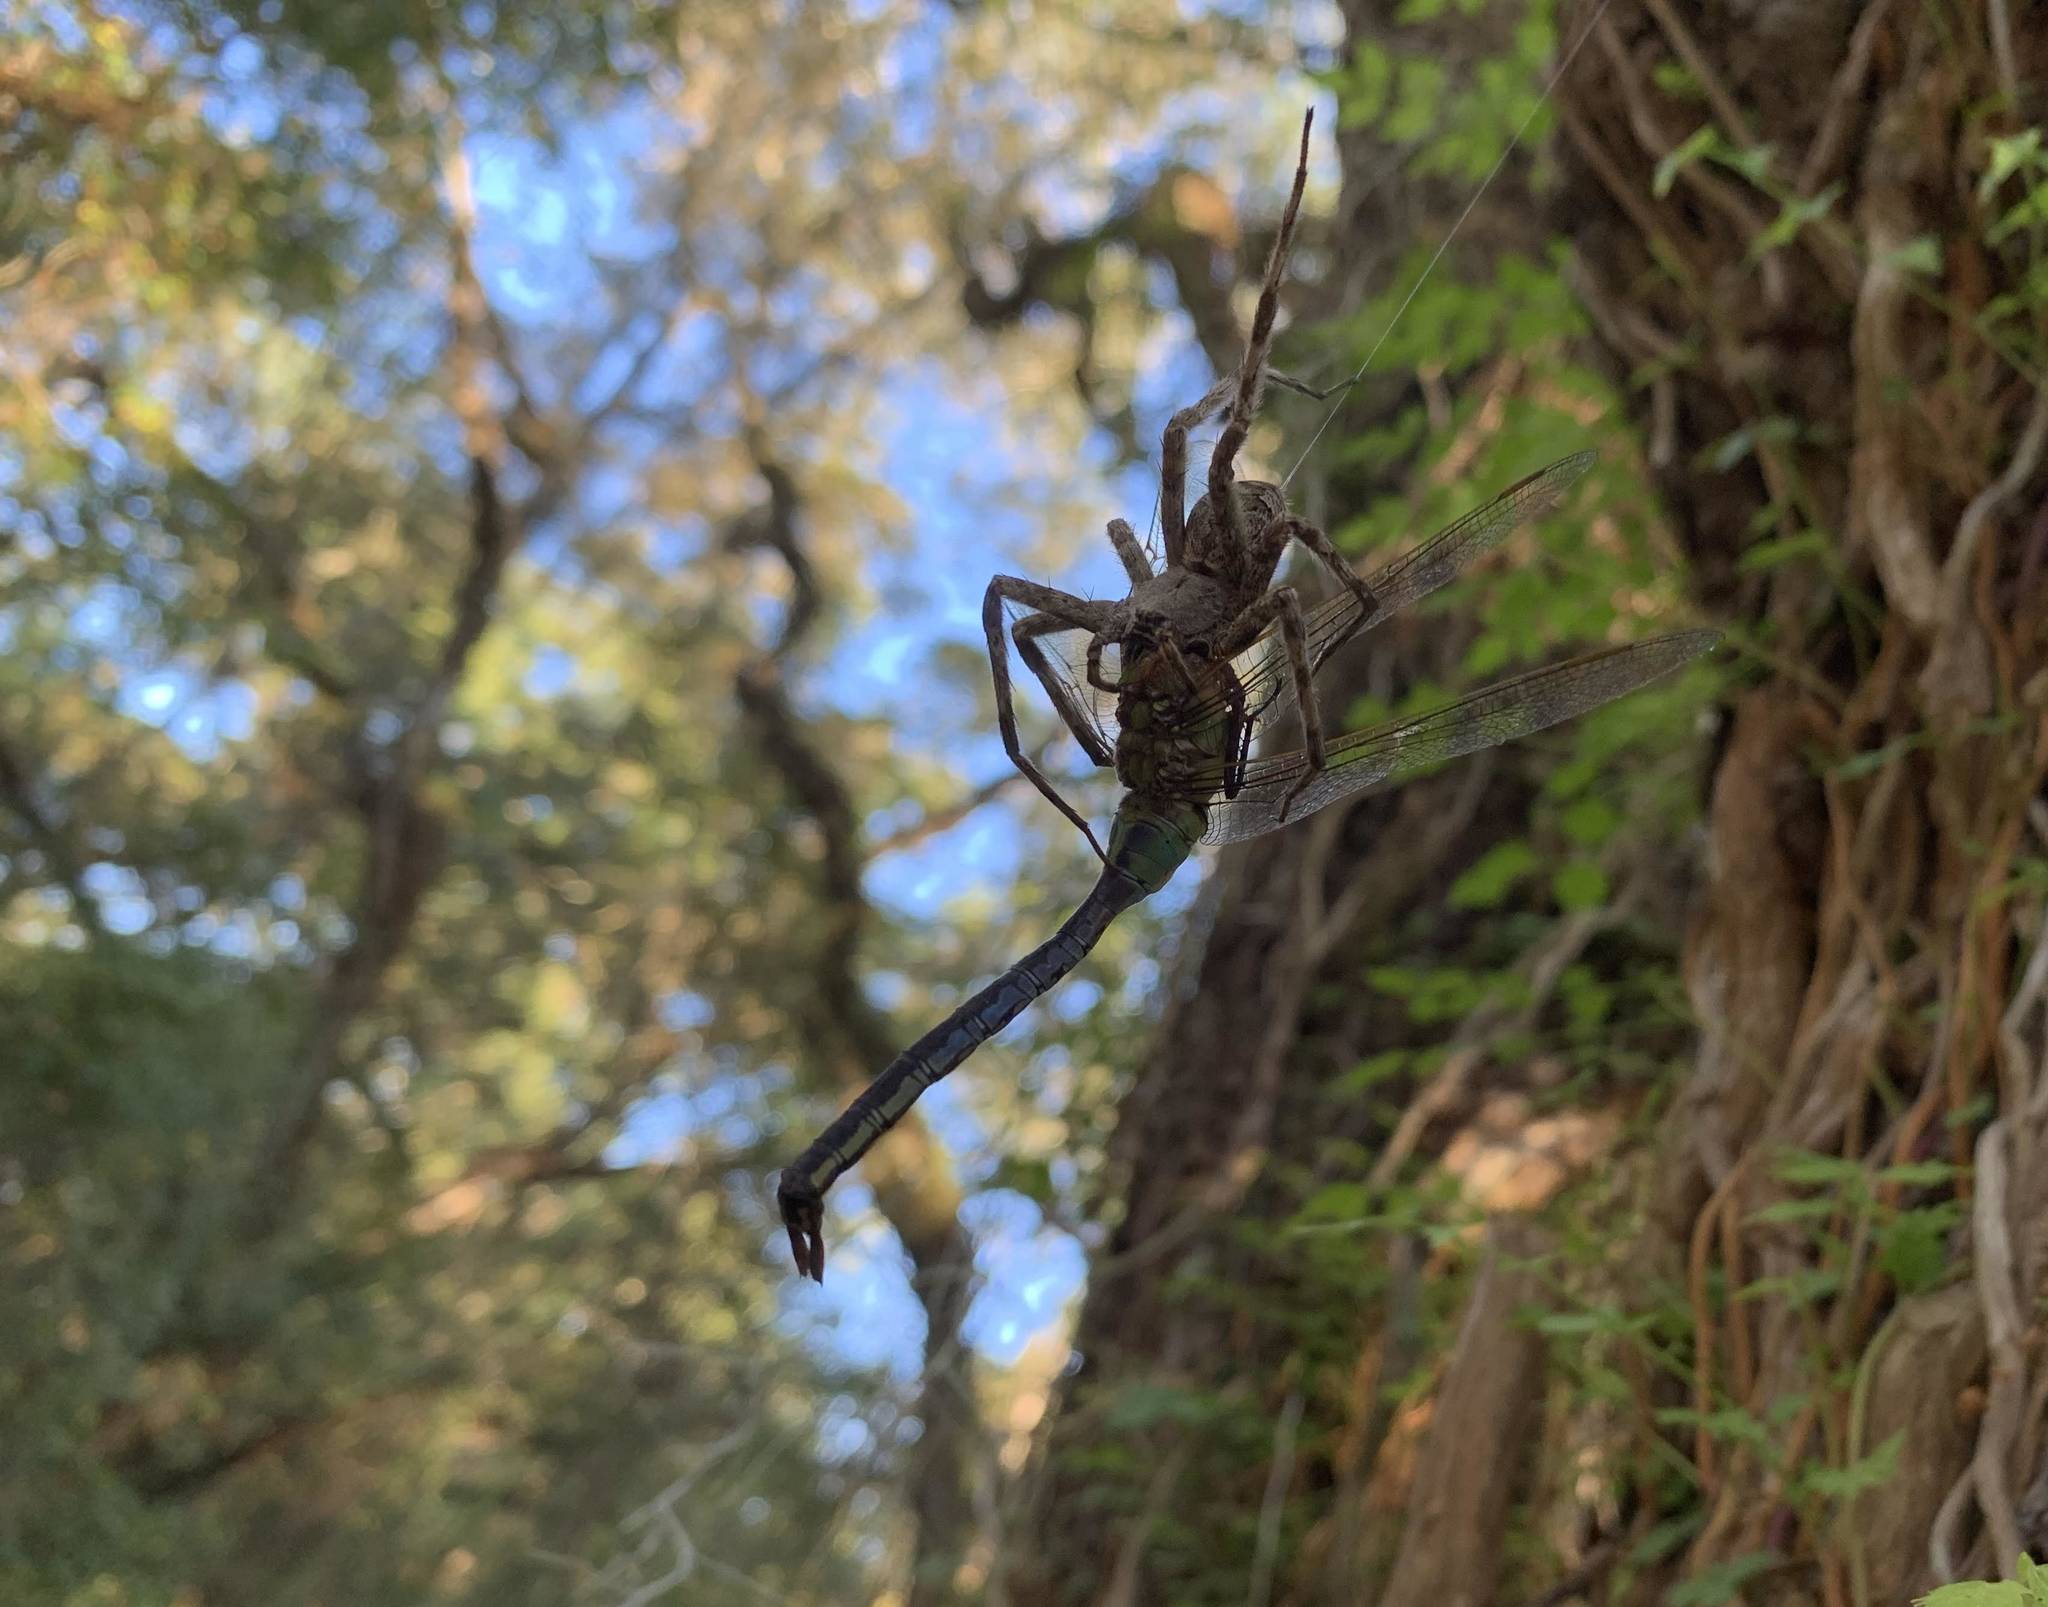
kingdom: Animalia
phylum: Arthropoda
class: Arachnida
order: Araneae
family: Pisauridae
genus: Dolomedes
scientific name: Dolomedes albineus
